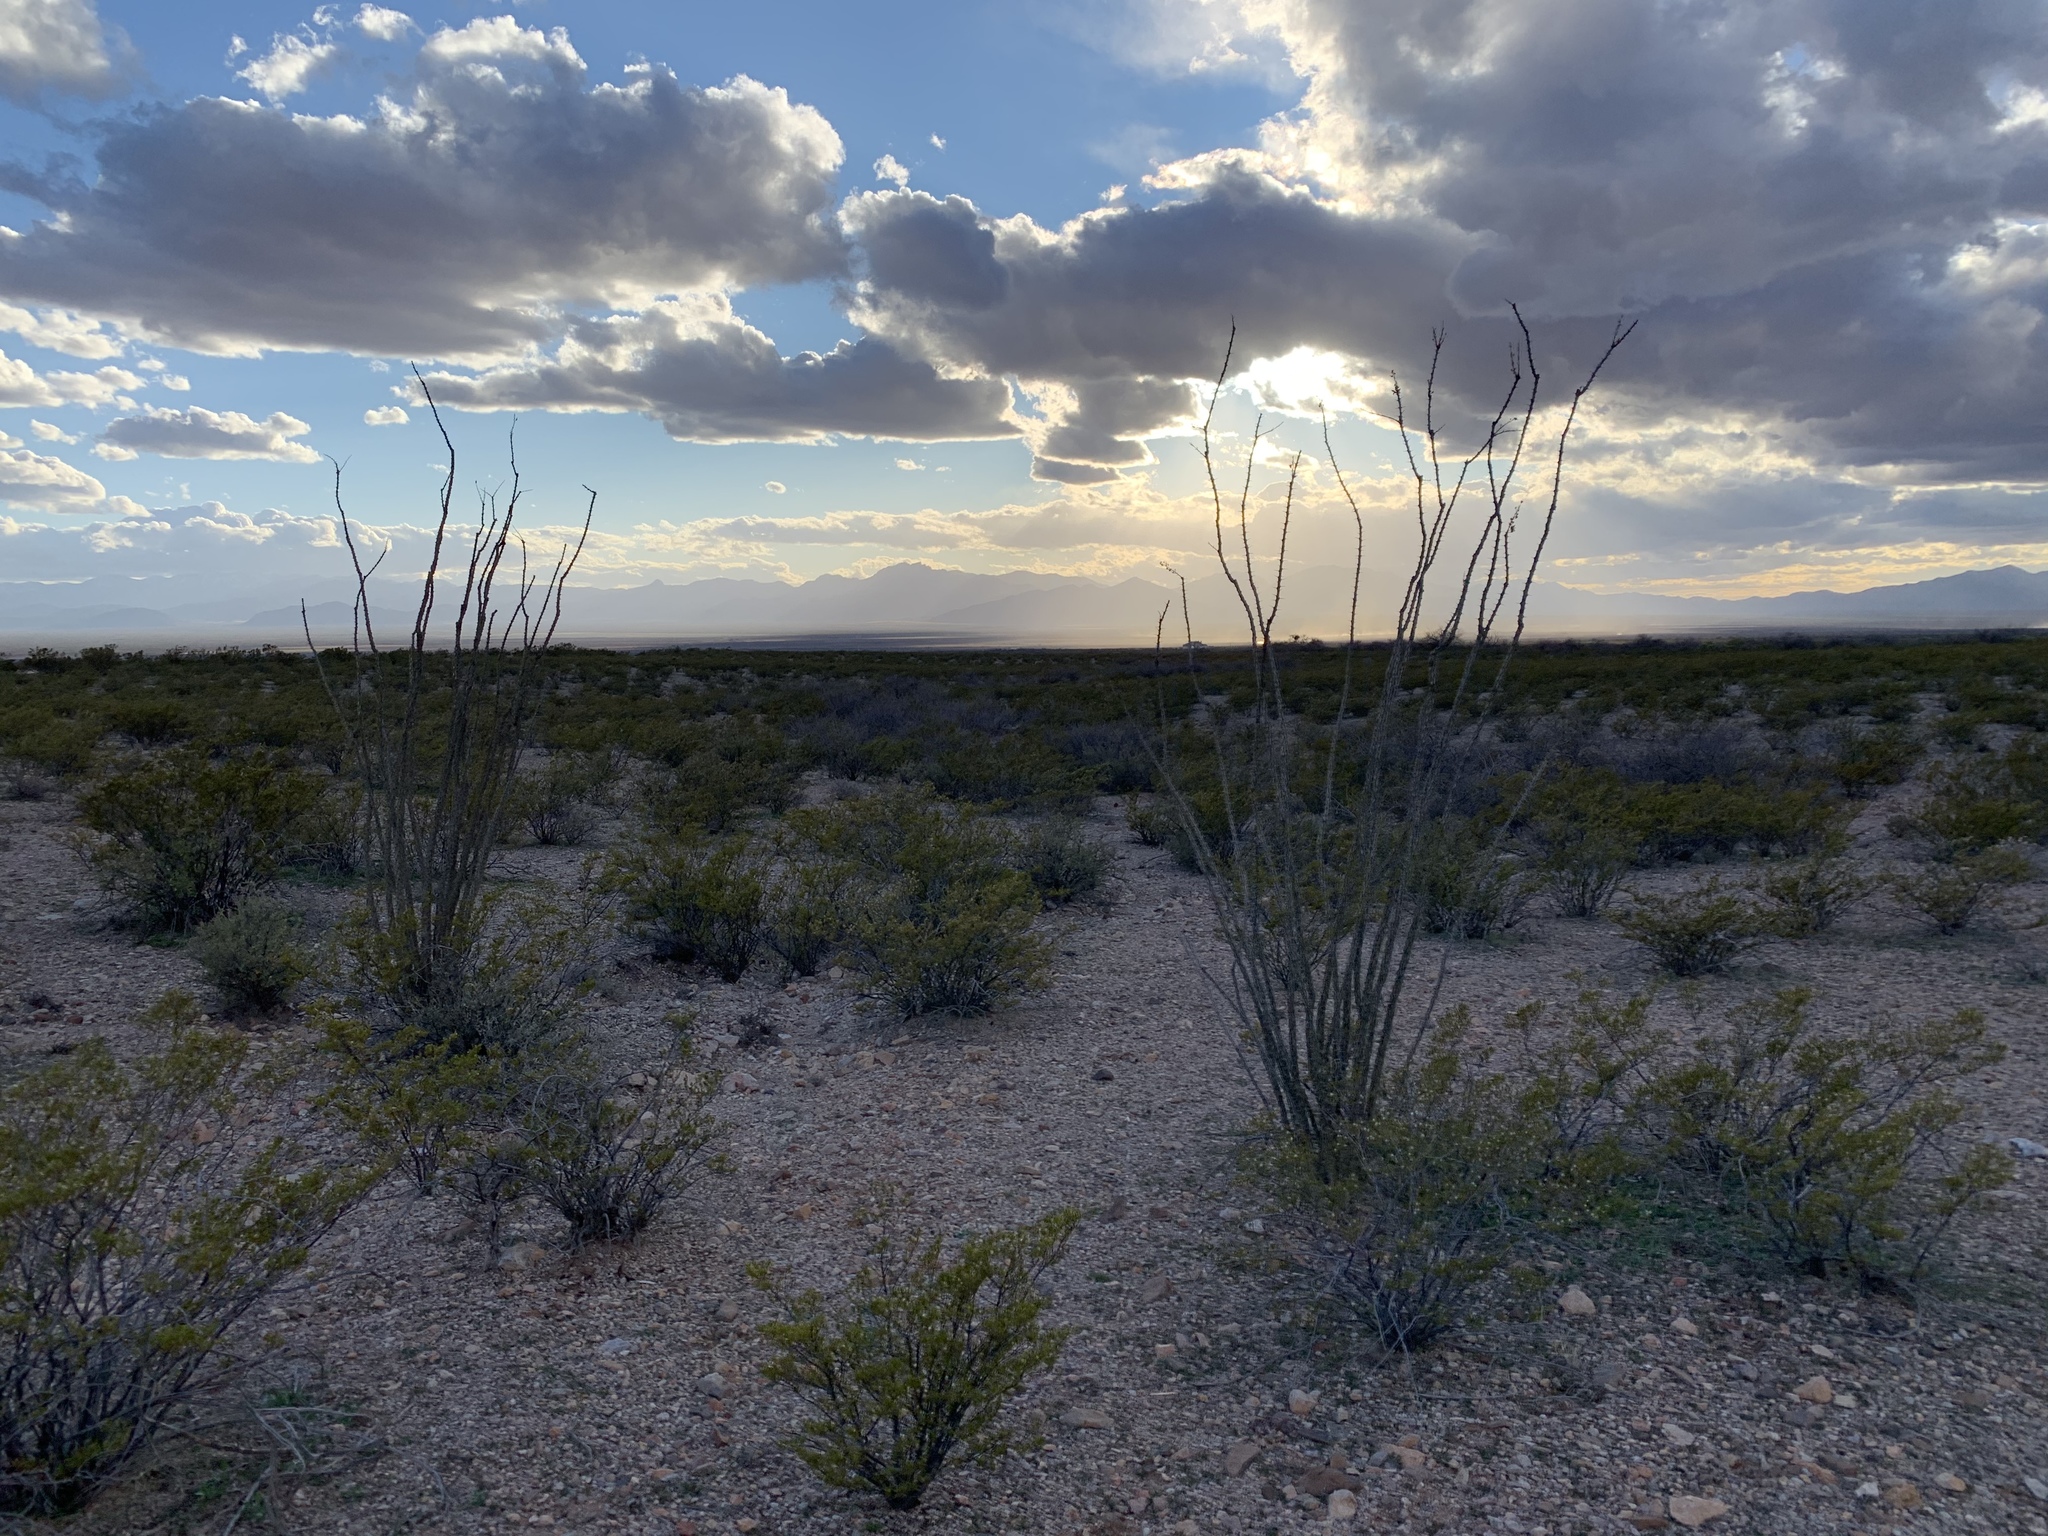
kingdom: Plantae
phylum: Tracheophyta
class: Magnoliopsida
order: Ericales
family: Fouquieriaceae
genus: Fouquieria
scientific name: Fouquieria splendens
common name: Vine-cactus
